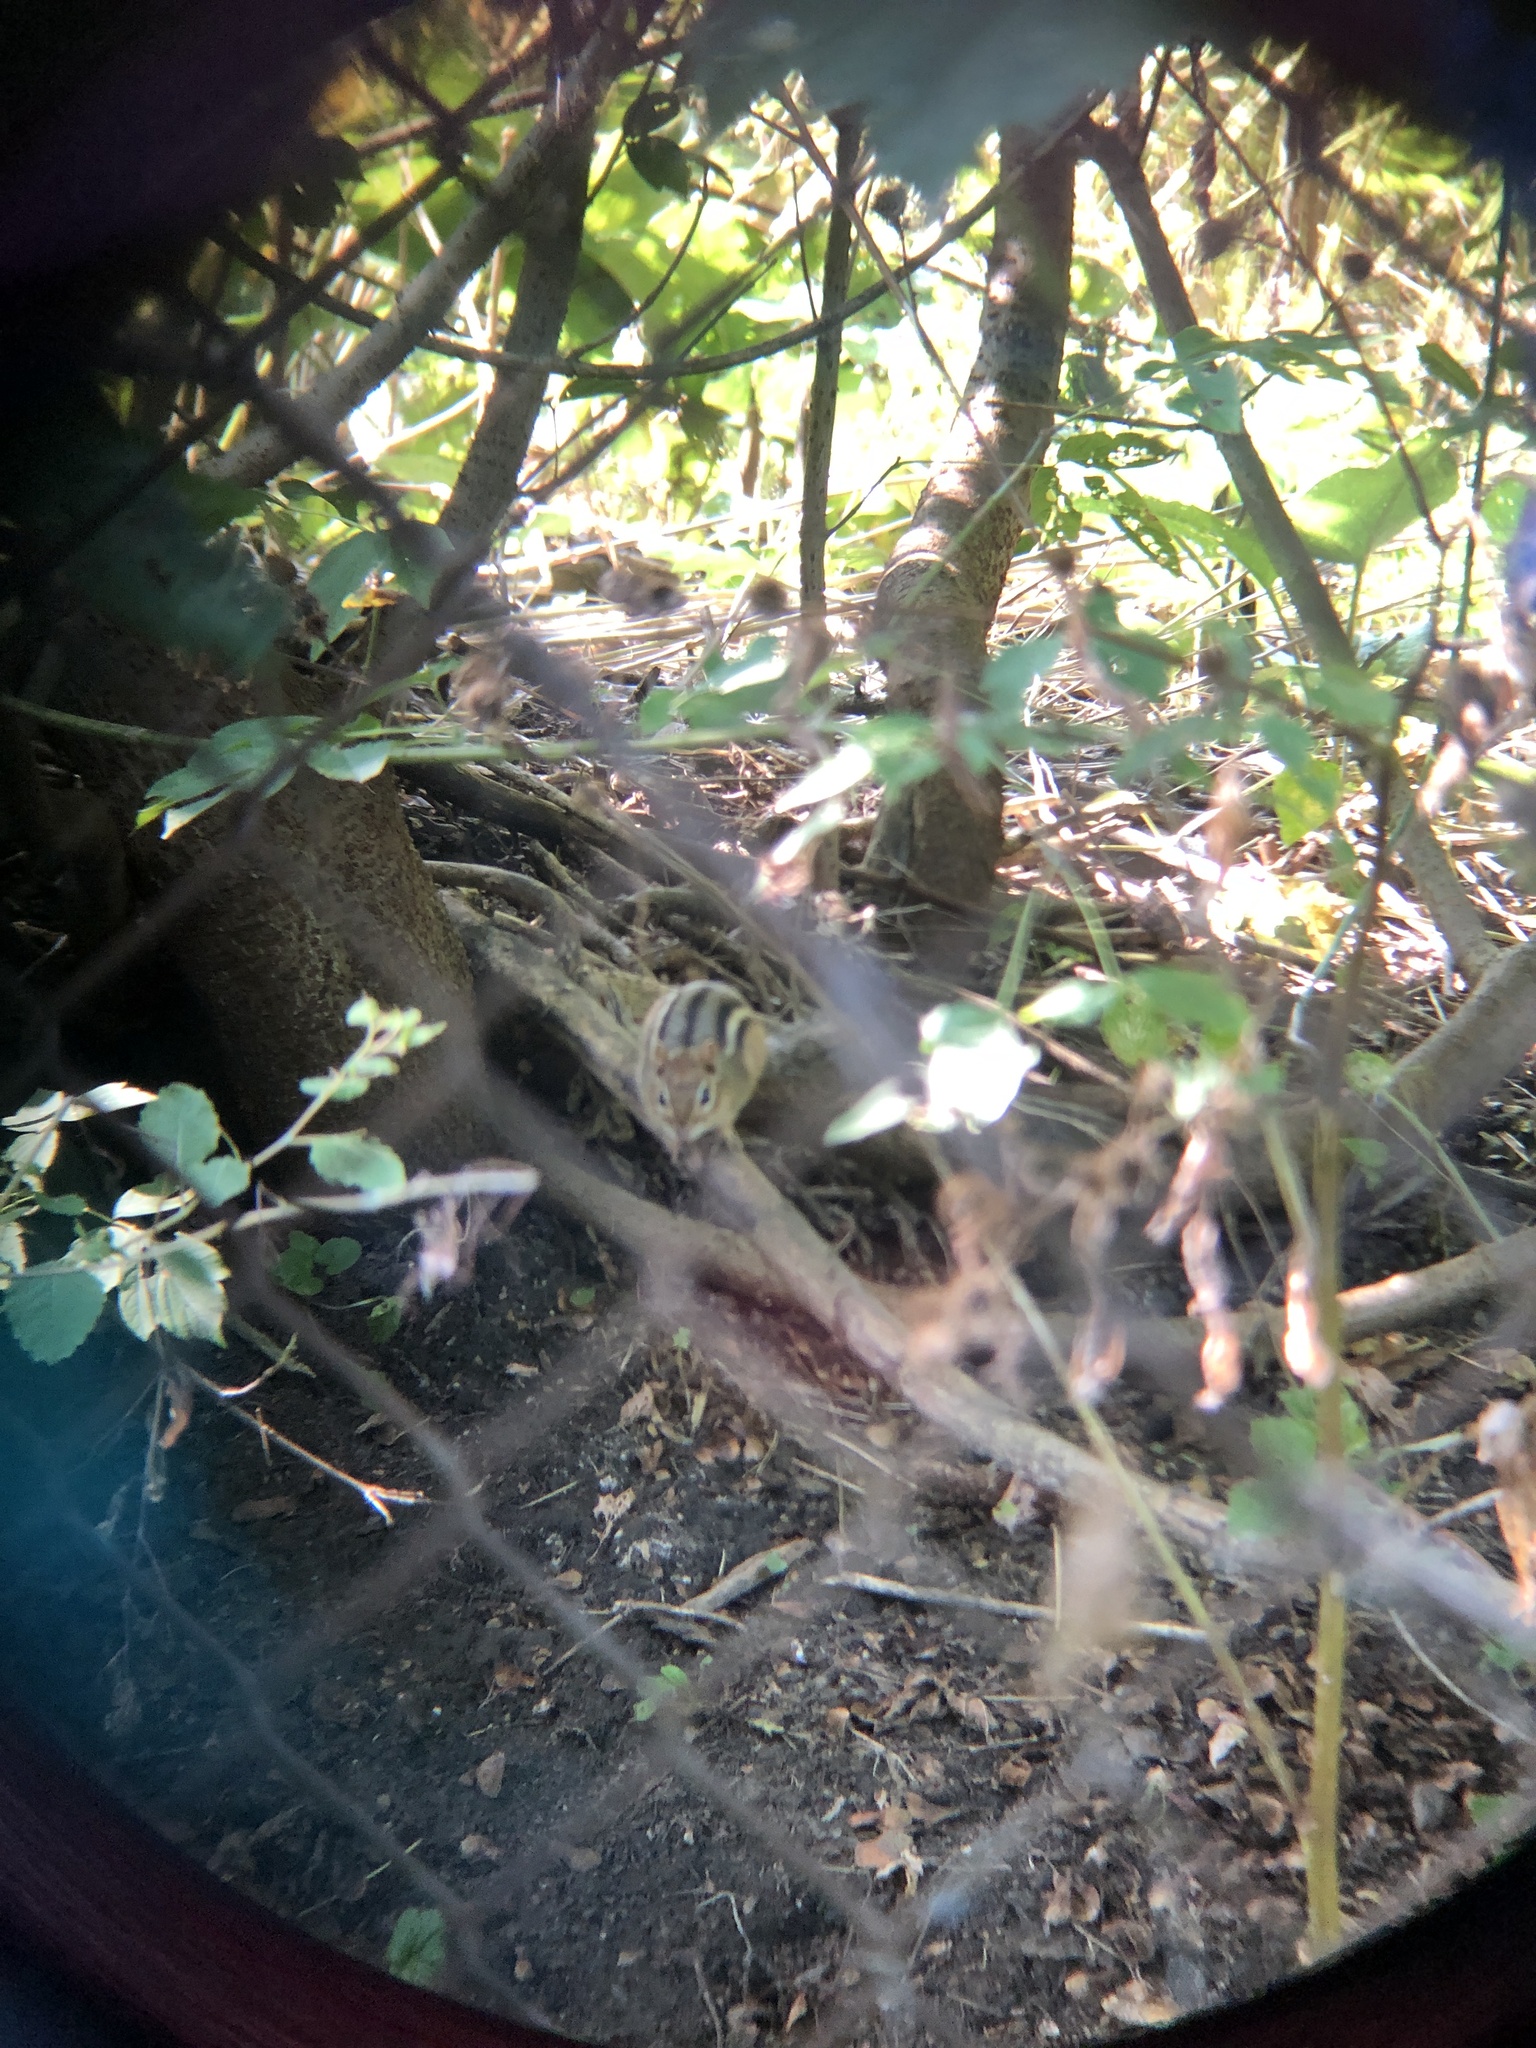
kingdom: Animalia
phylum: Chordata
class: Mammalia
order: Rodentia
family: Sciuridae
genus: Tamias
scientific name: Tamias striatus
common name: Eastern chipmunk
